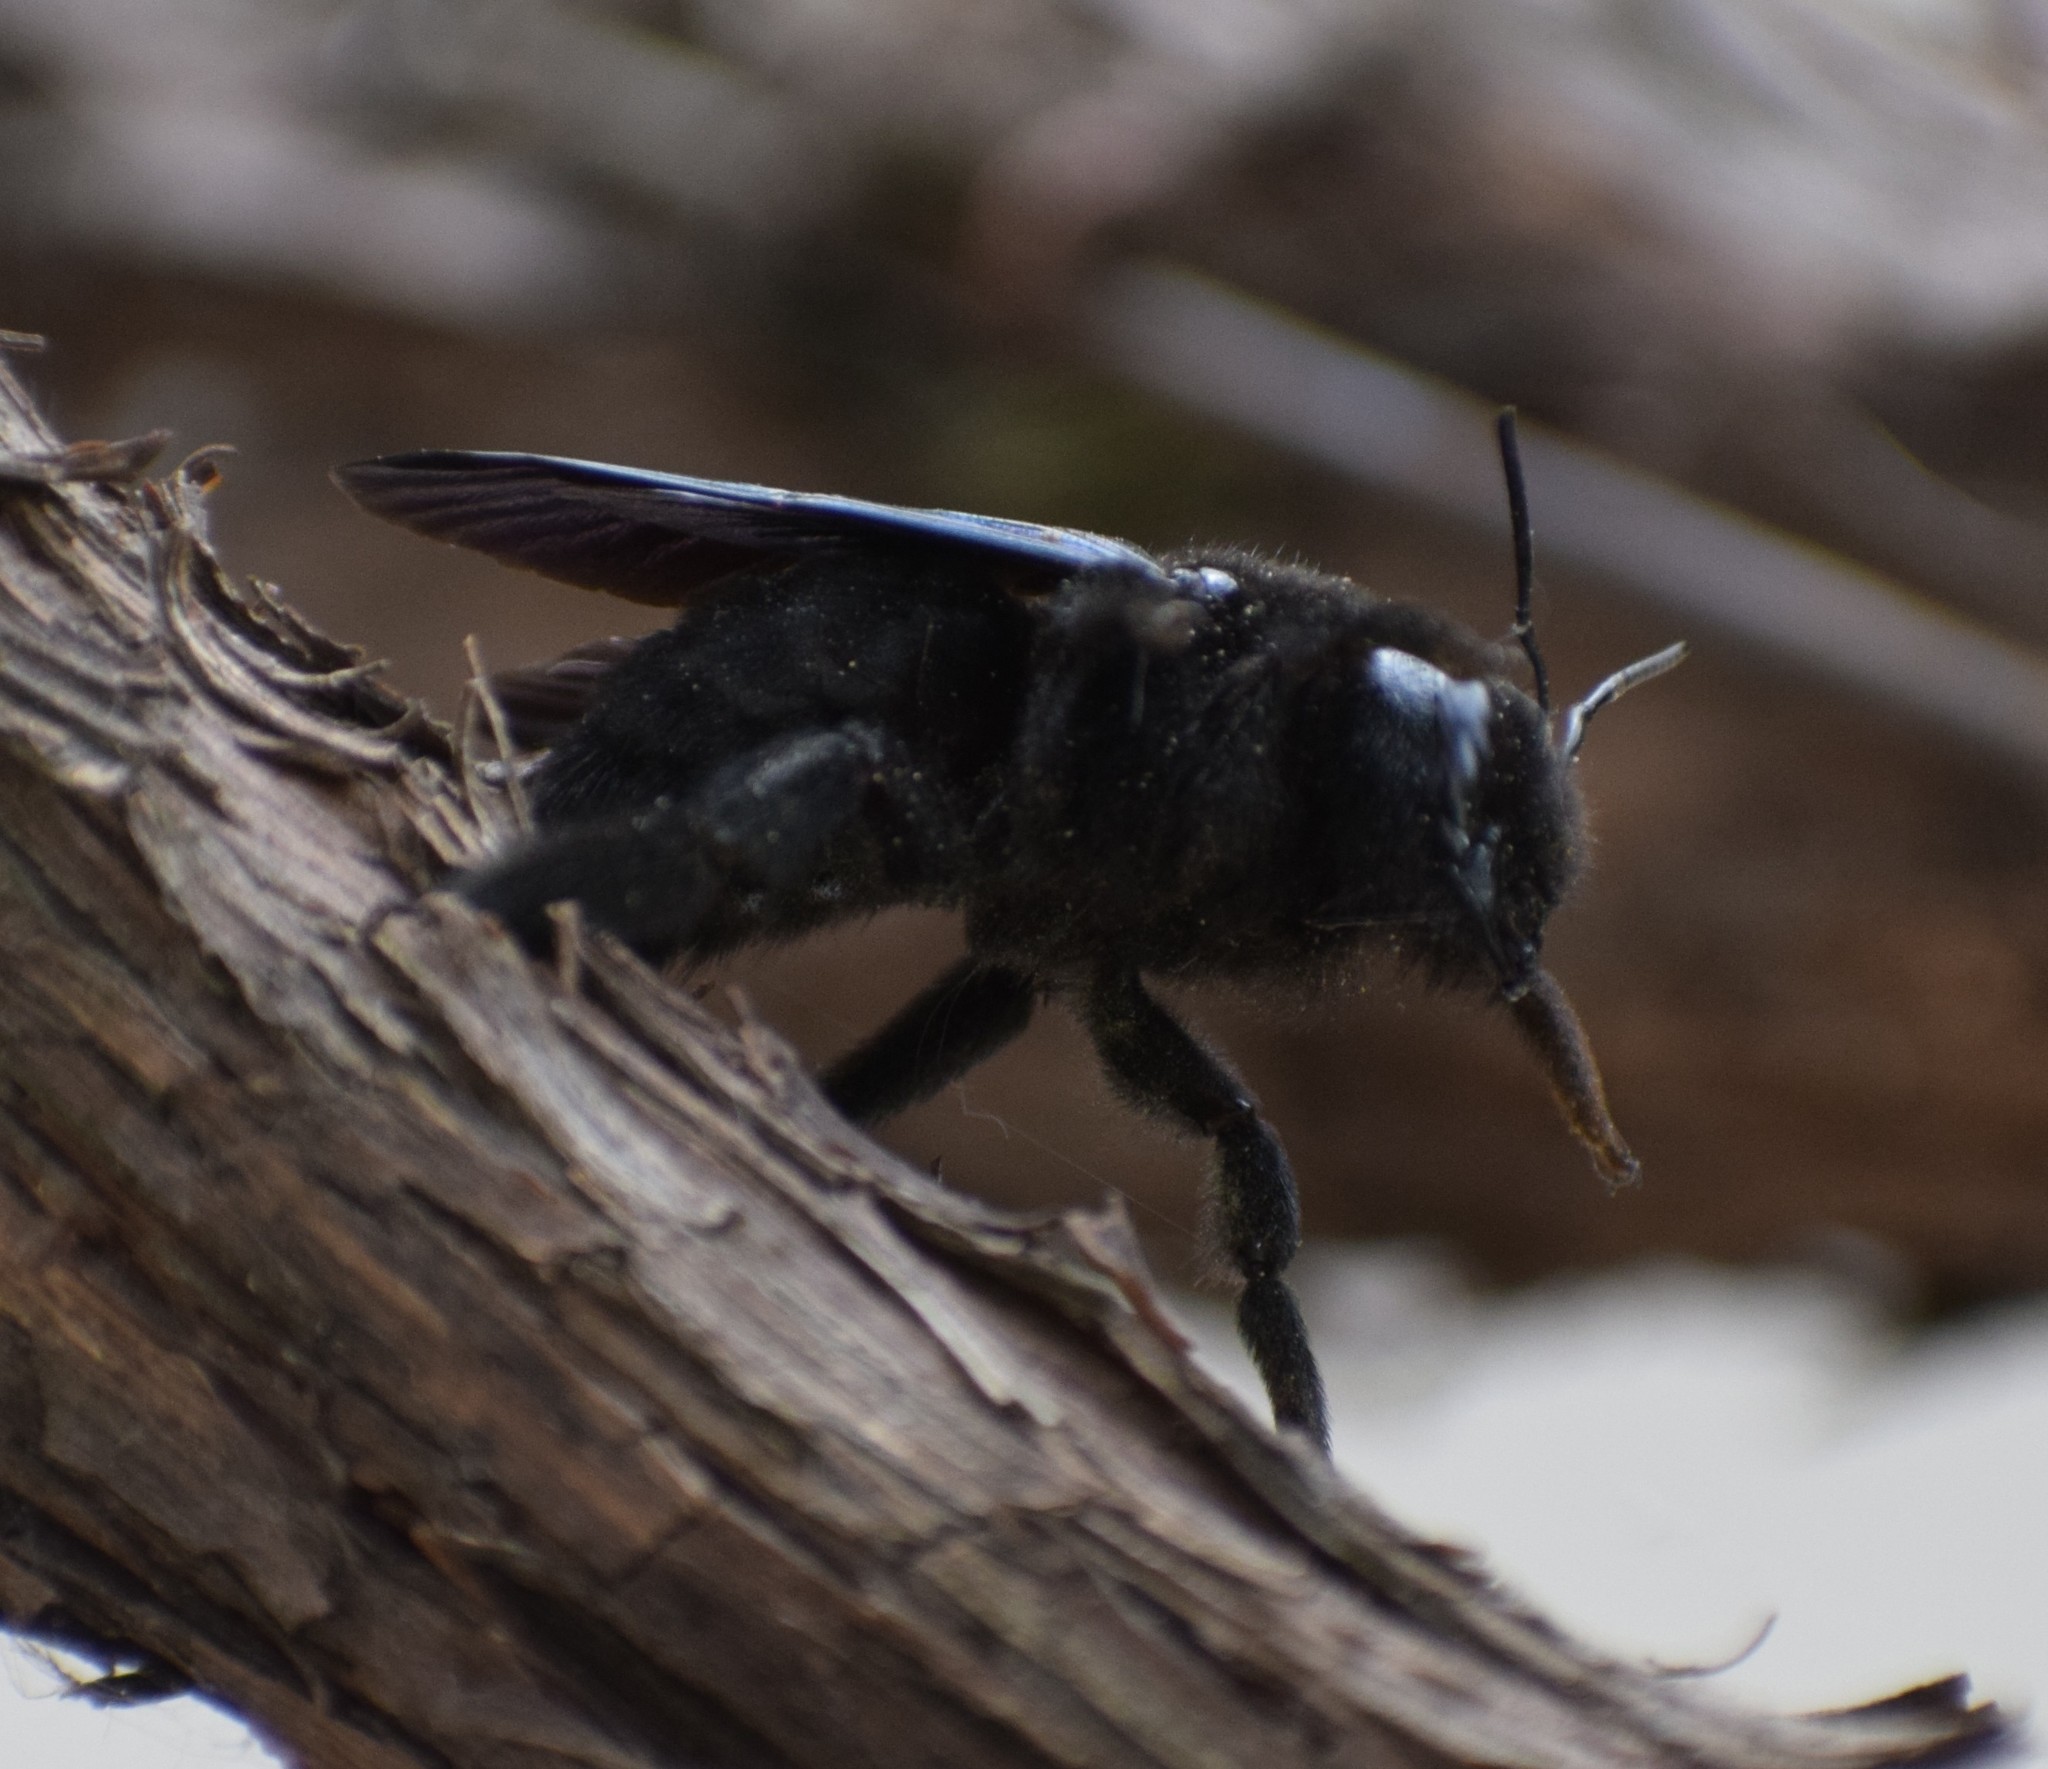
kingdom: Animalia
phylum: Arthropoda
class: Insecta
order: Hymenoptera
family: Apidae
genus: Xylocopa
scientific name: Xylocopa violacea
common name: Violet carpenter bee
